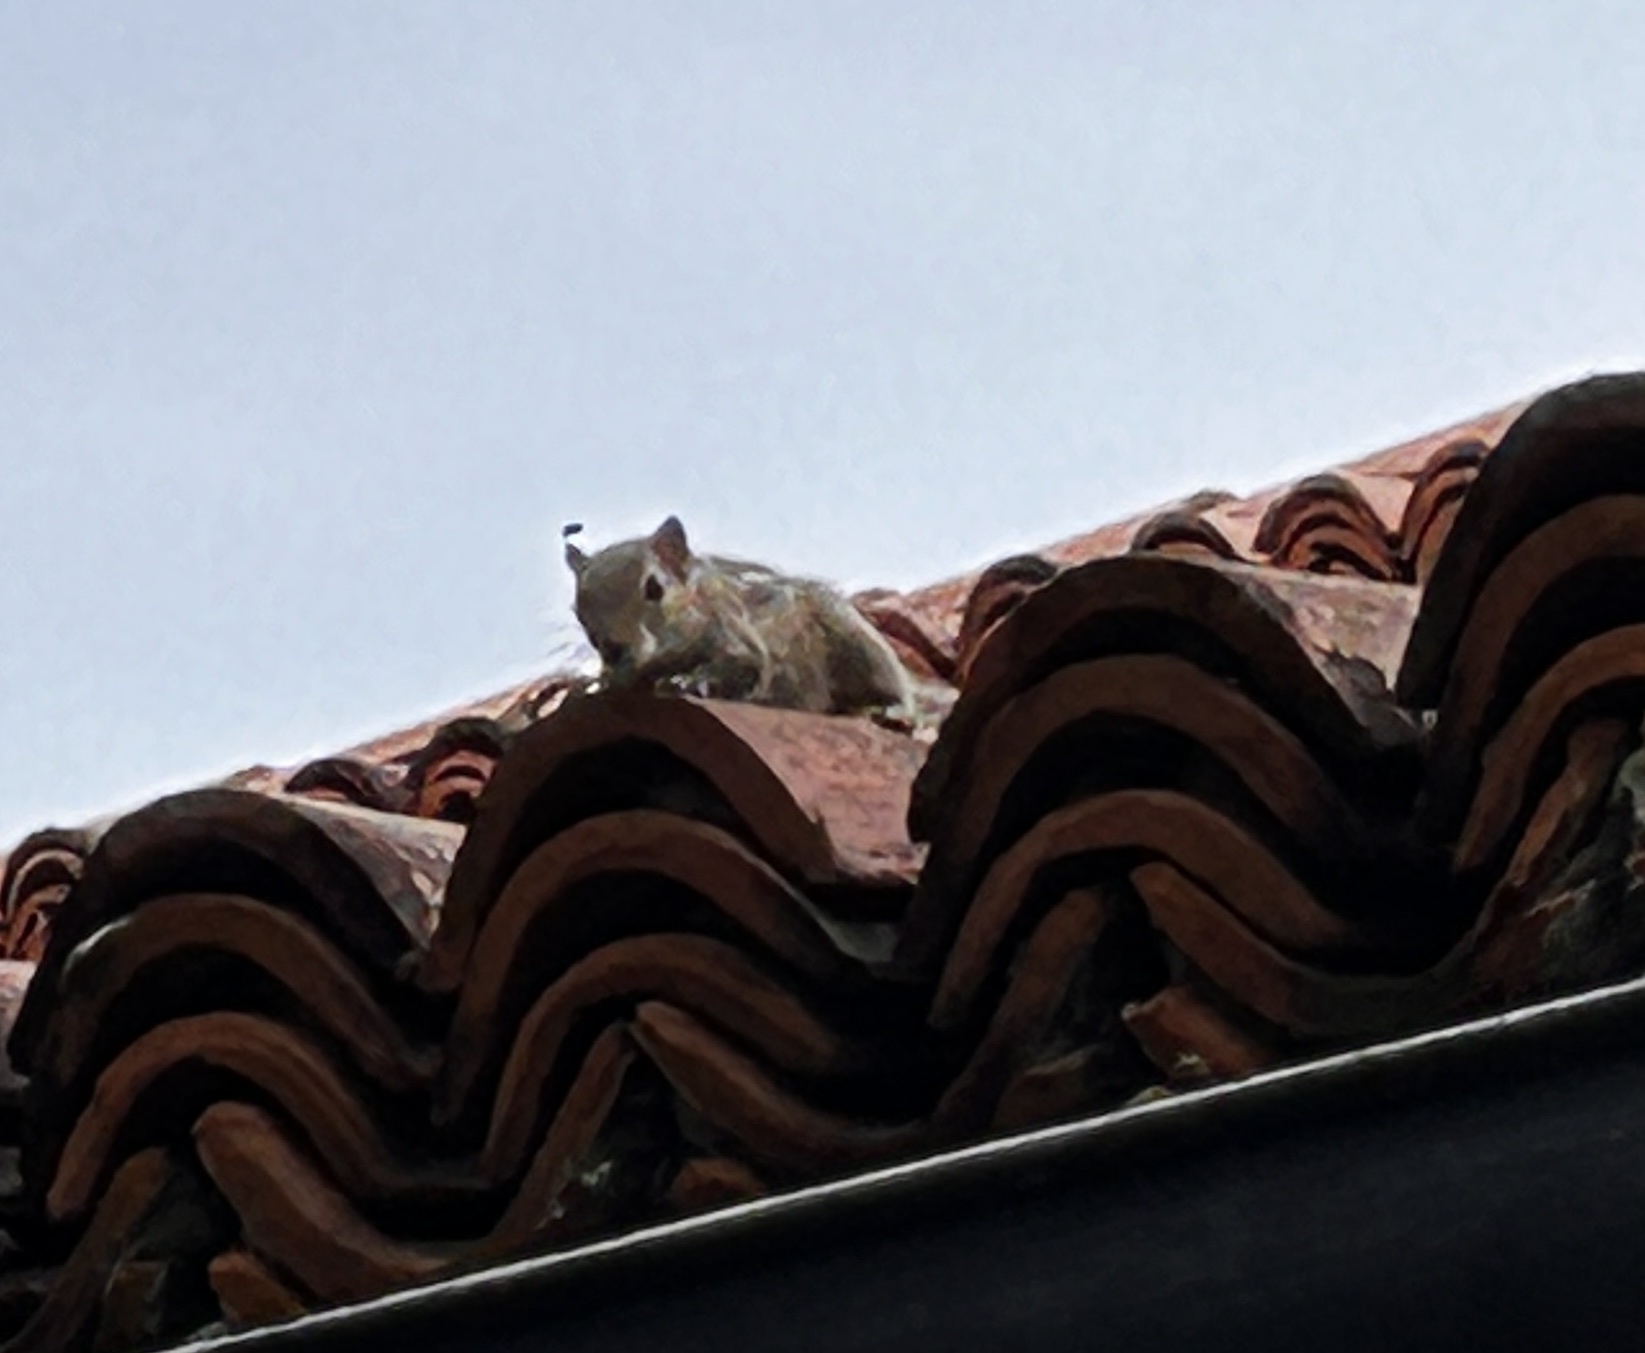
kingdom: Animalia
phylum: Chordata
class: Mammalia
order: Rodentia
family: Sciuridae
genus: Funambulus
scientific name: Funambulus palmarum
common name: Indian palm squirrel
